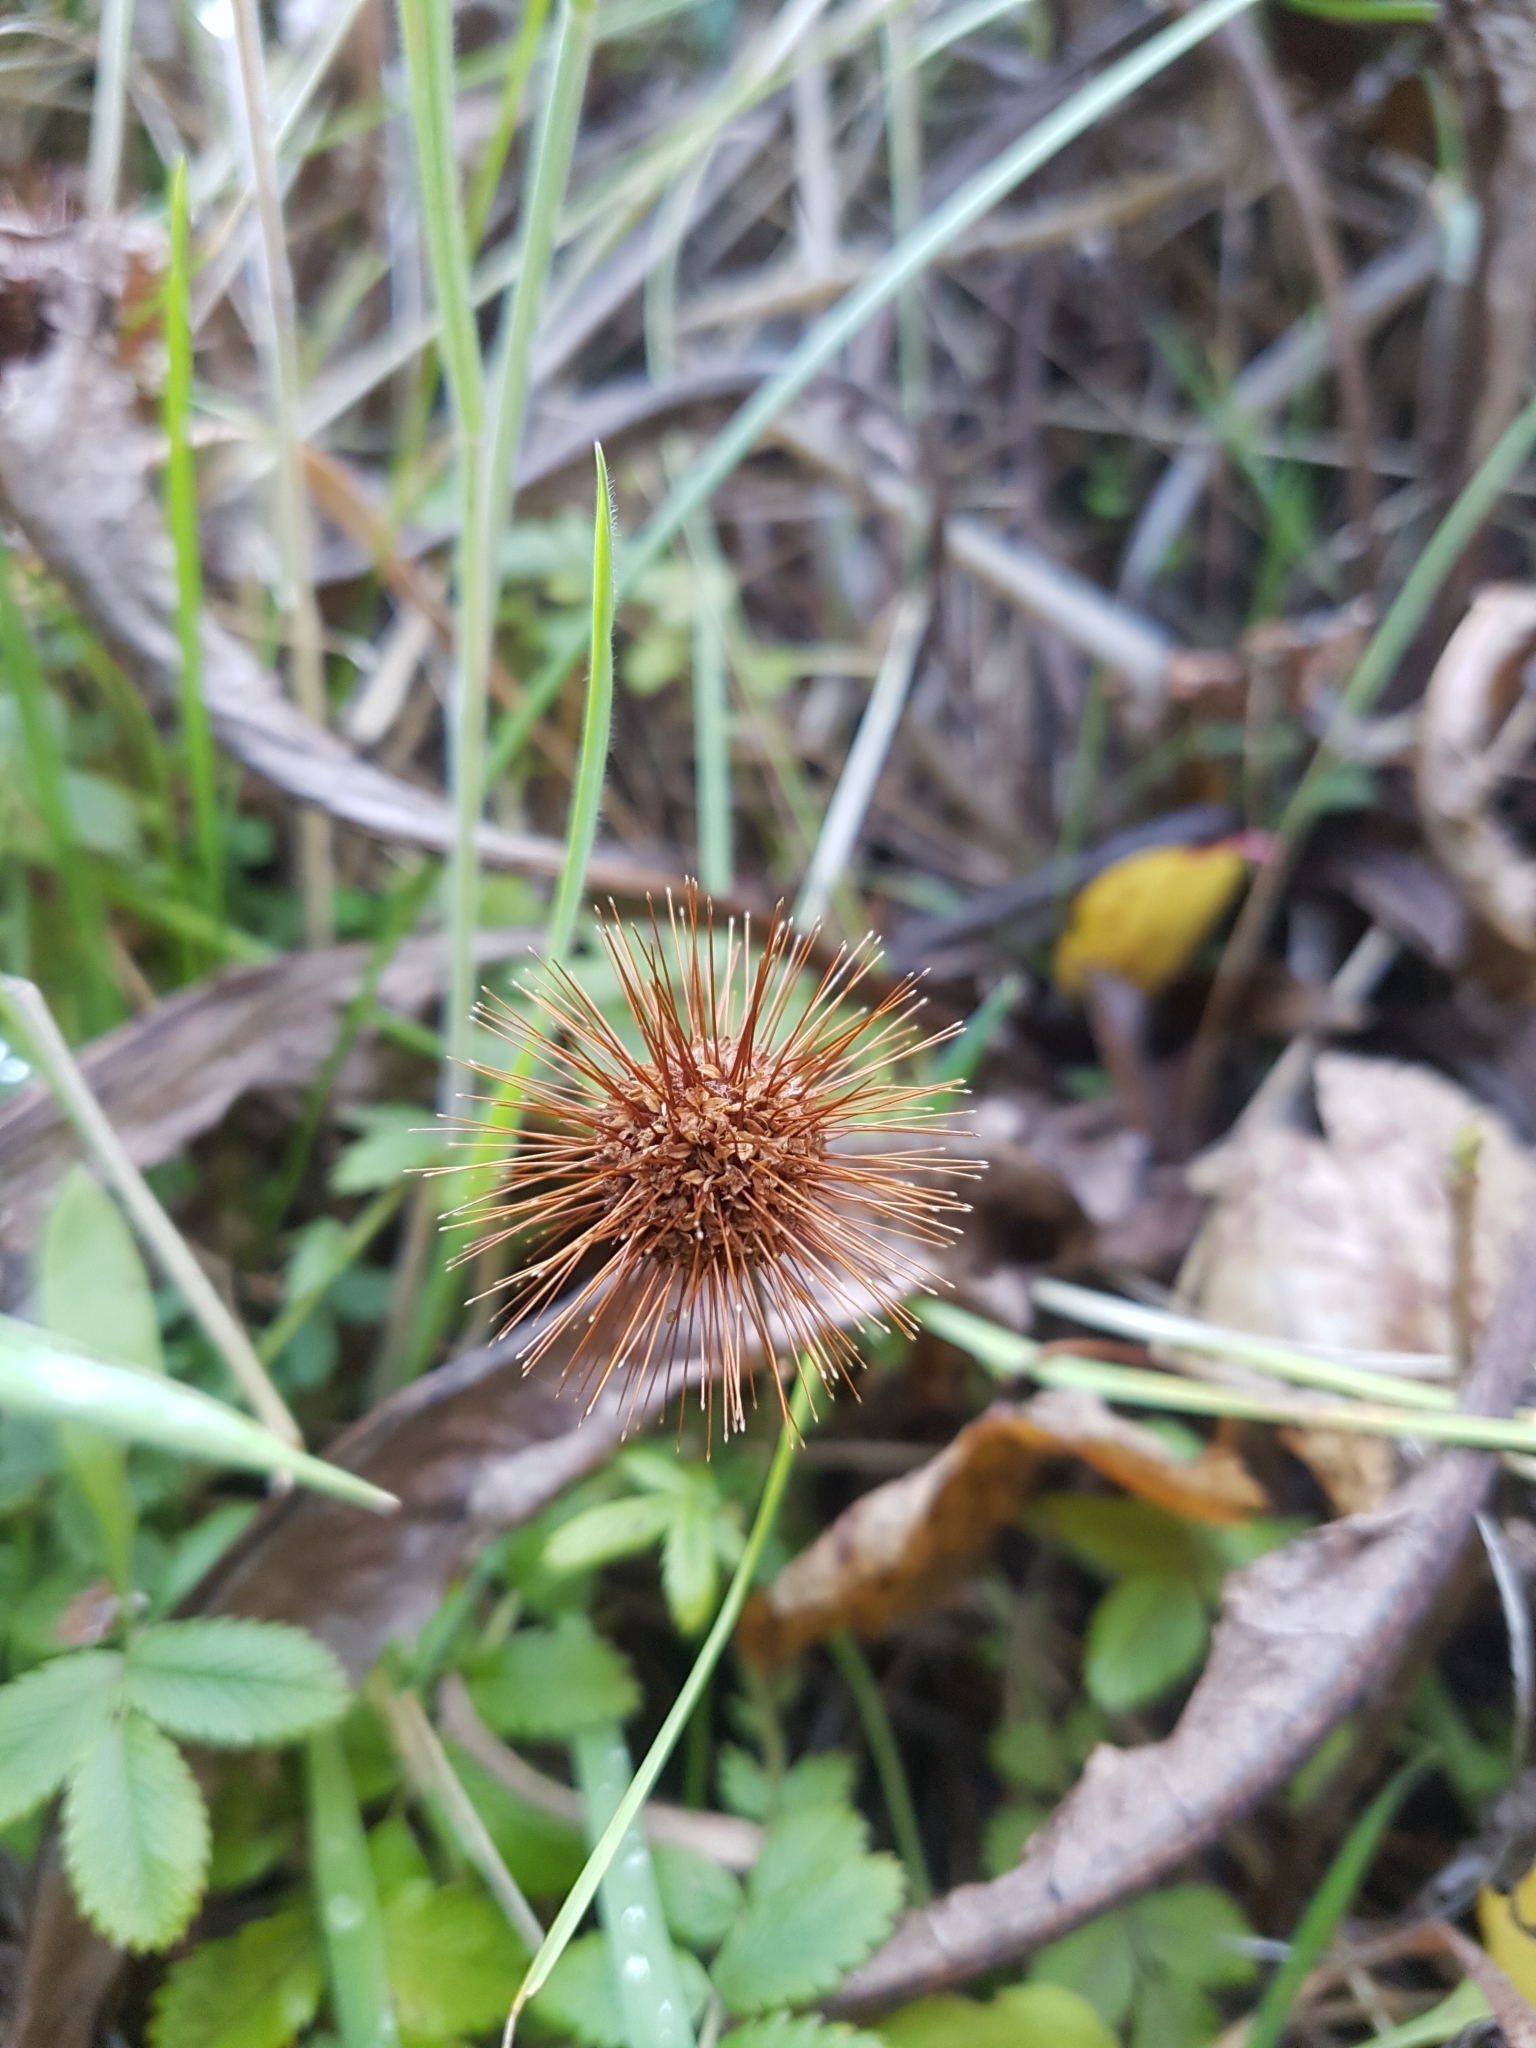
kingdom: Plantae
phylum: Tracheophyta
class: Magnoliopsida
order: Rosales
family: Rosaceae
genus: Acaena
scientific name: Acaena ovalifolia
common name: Two-spined acaena
